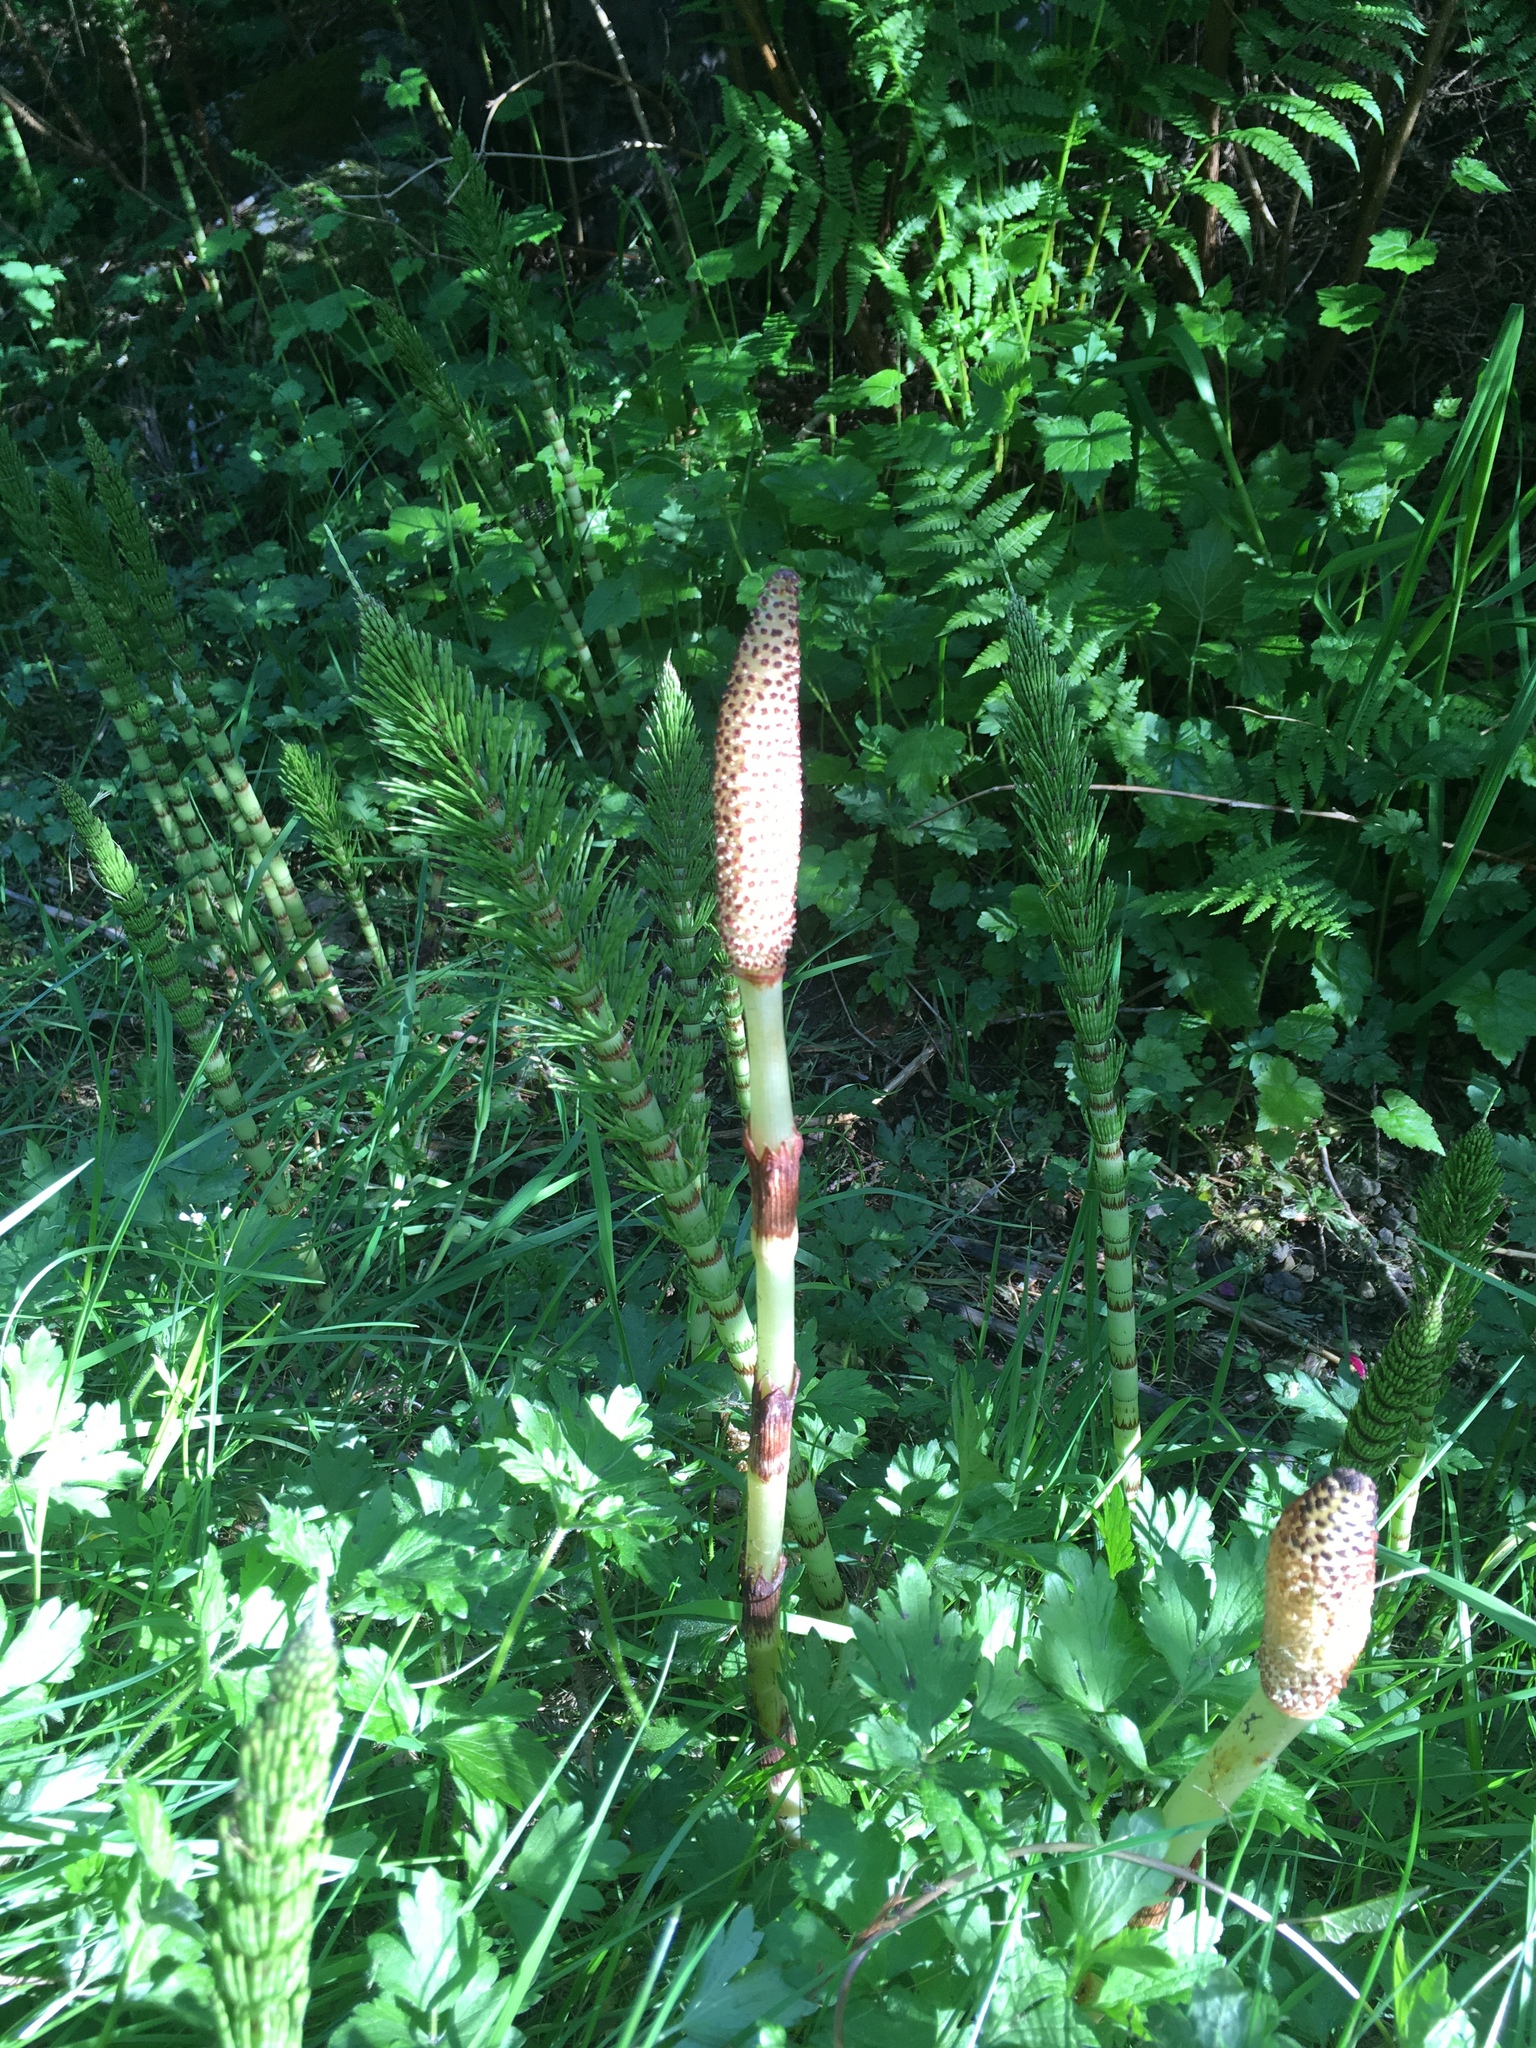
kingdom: Plantae
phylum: Tracheophyta
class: Polypodiopsida
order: Equisetales
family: Equisetaceae
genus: Equisetum
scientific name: Equisetum braunii
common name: Braun's horsetail
